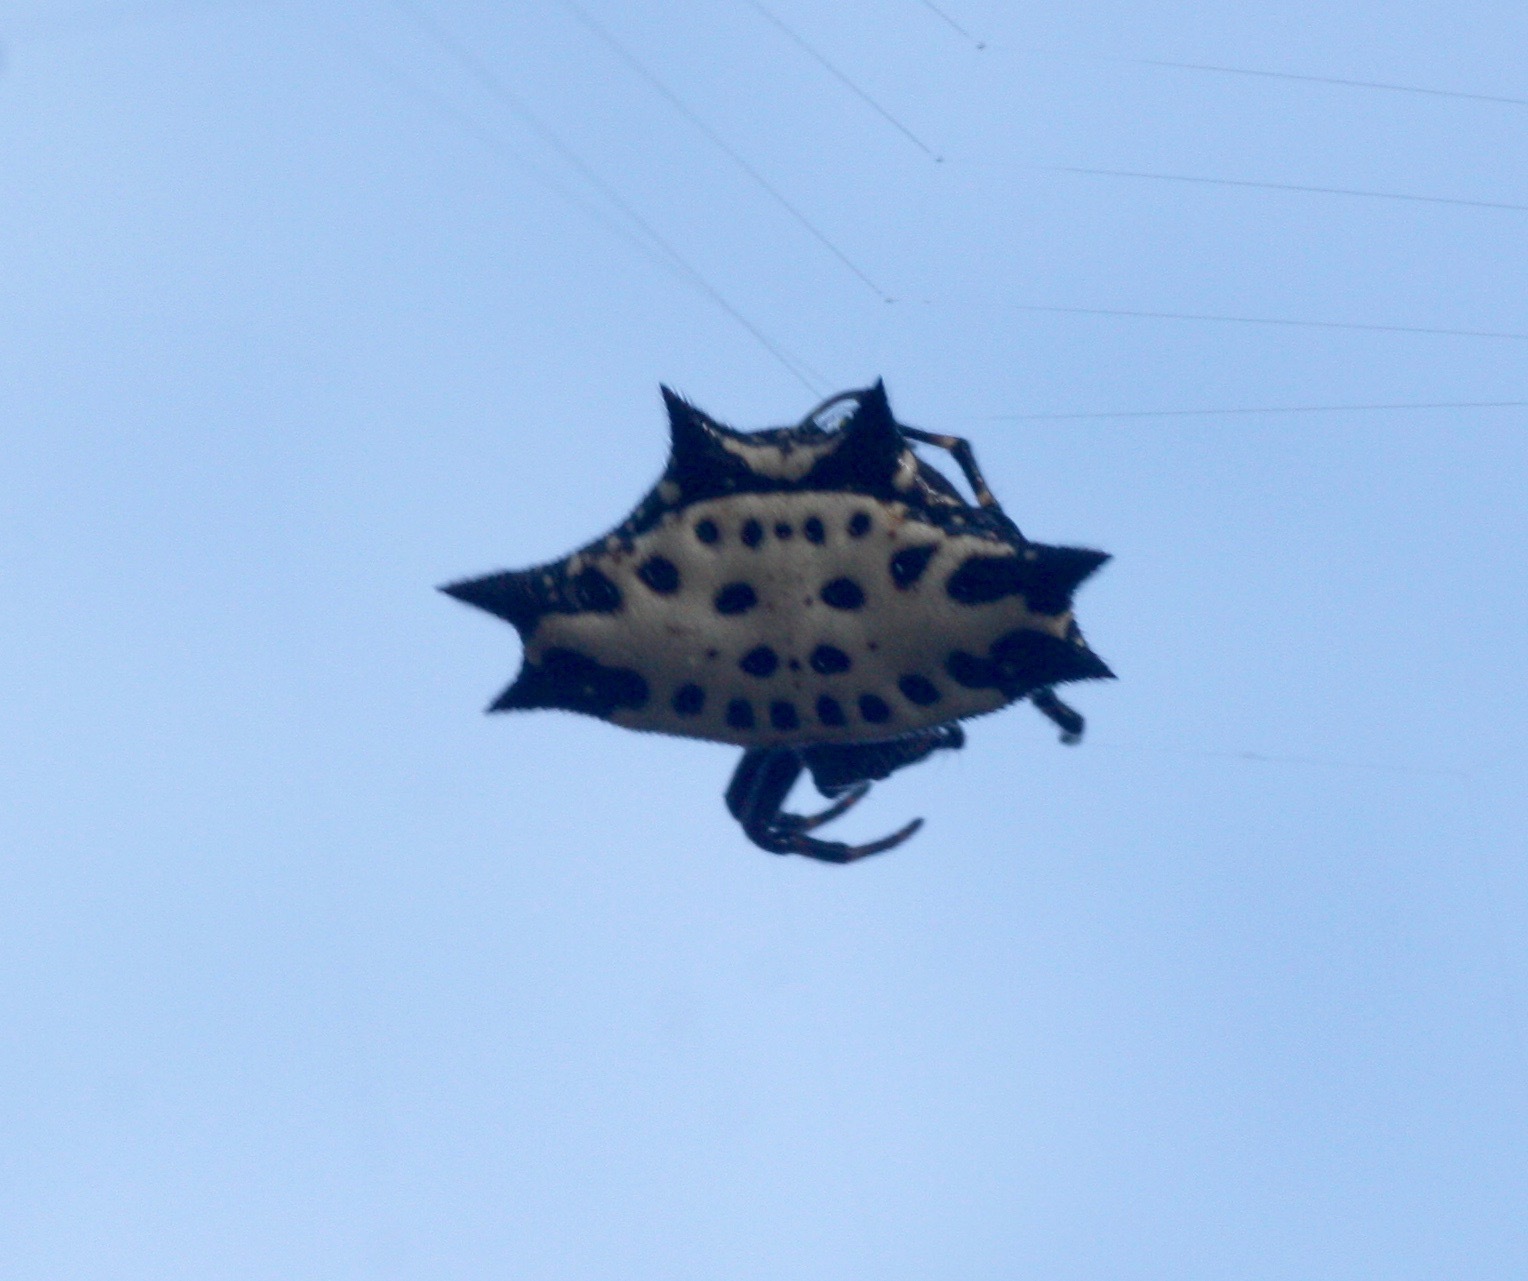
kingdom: Animalia
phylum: Arthropoda
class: Arachnida
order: Araneae
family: Araneidae
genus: Gasteracantha
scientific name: Gasteracantha cancriformis
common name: Orb weavers
